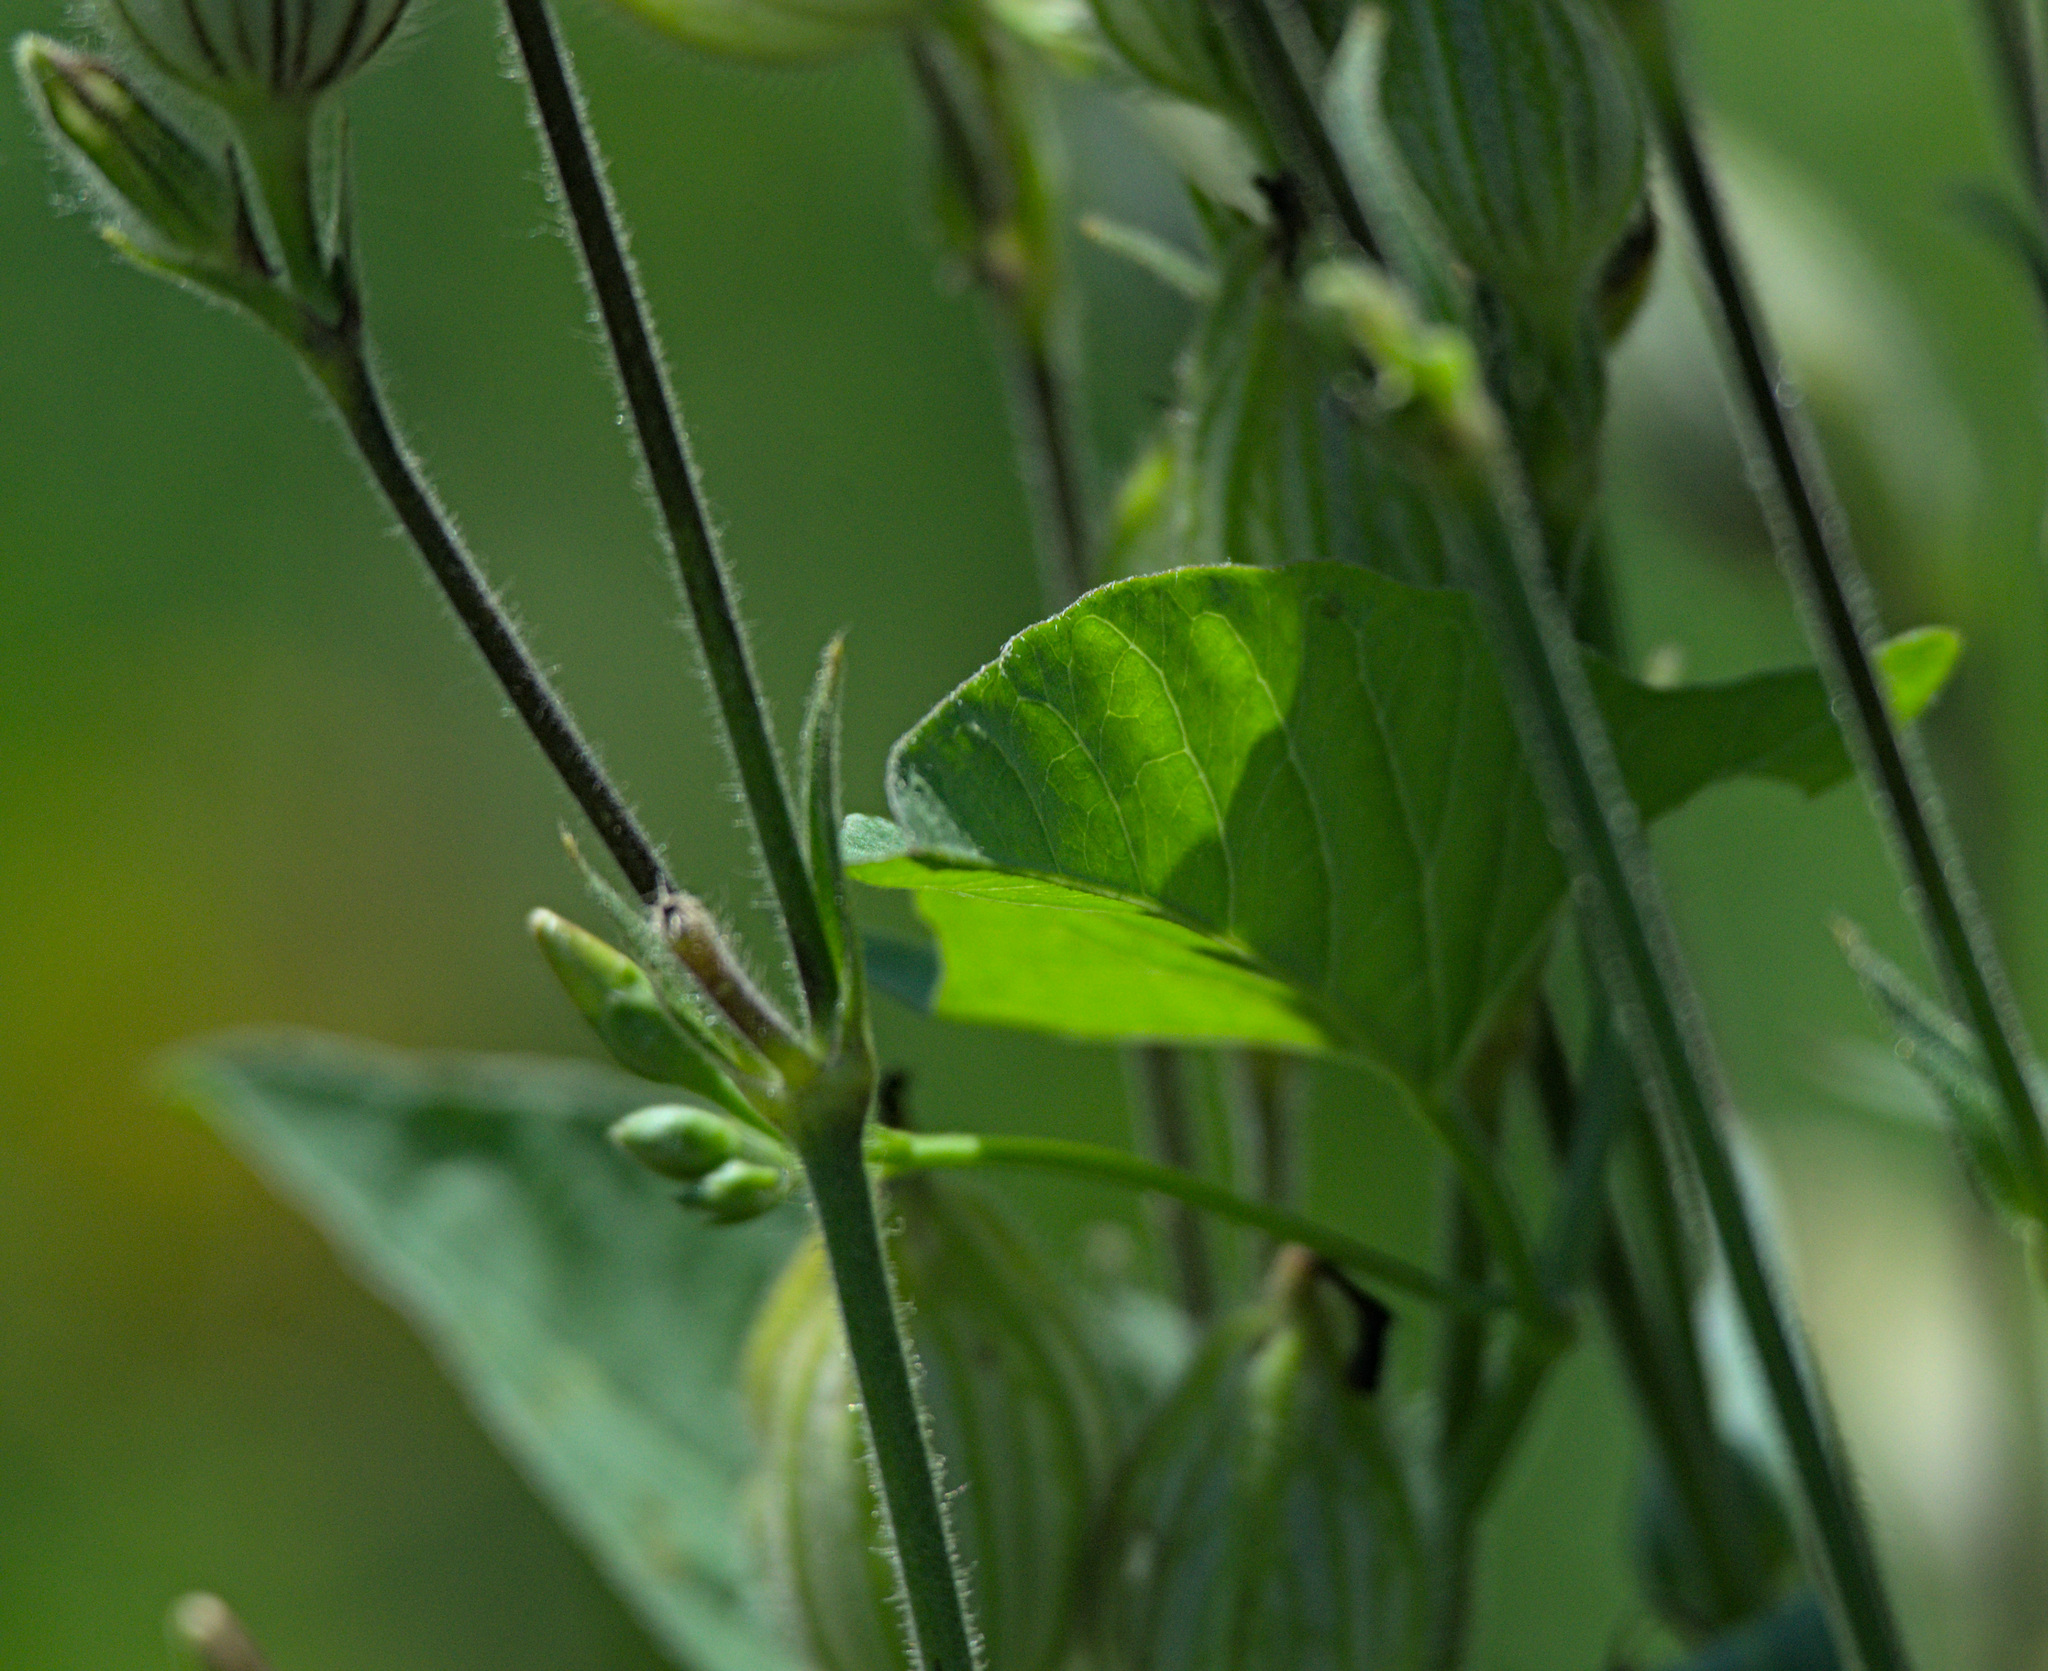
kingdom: Plantae
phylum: Tracheophyta
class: Magnoliopsida
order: Caryophyllales
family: Caryophyllaceae
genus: Silene
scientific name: Silene latifolia
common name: White campion
